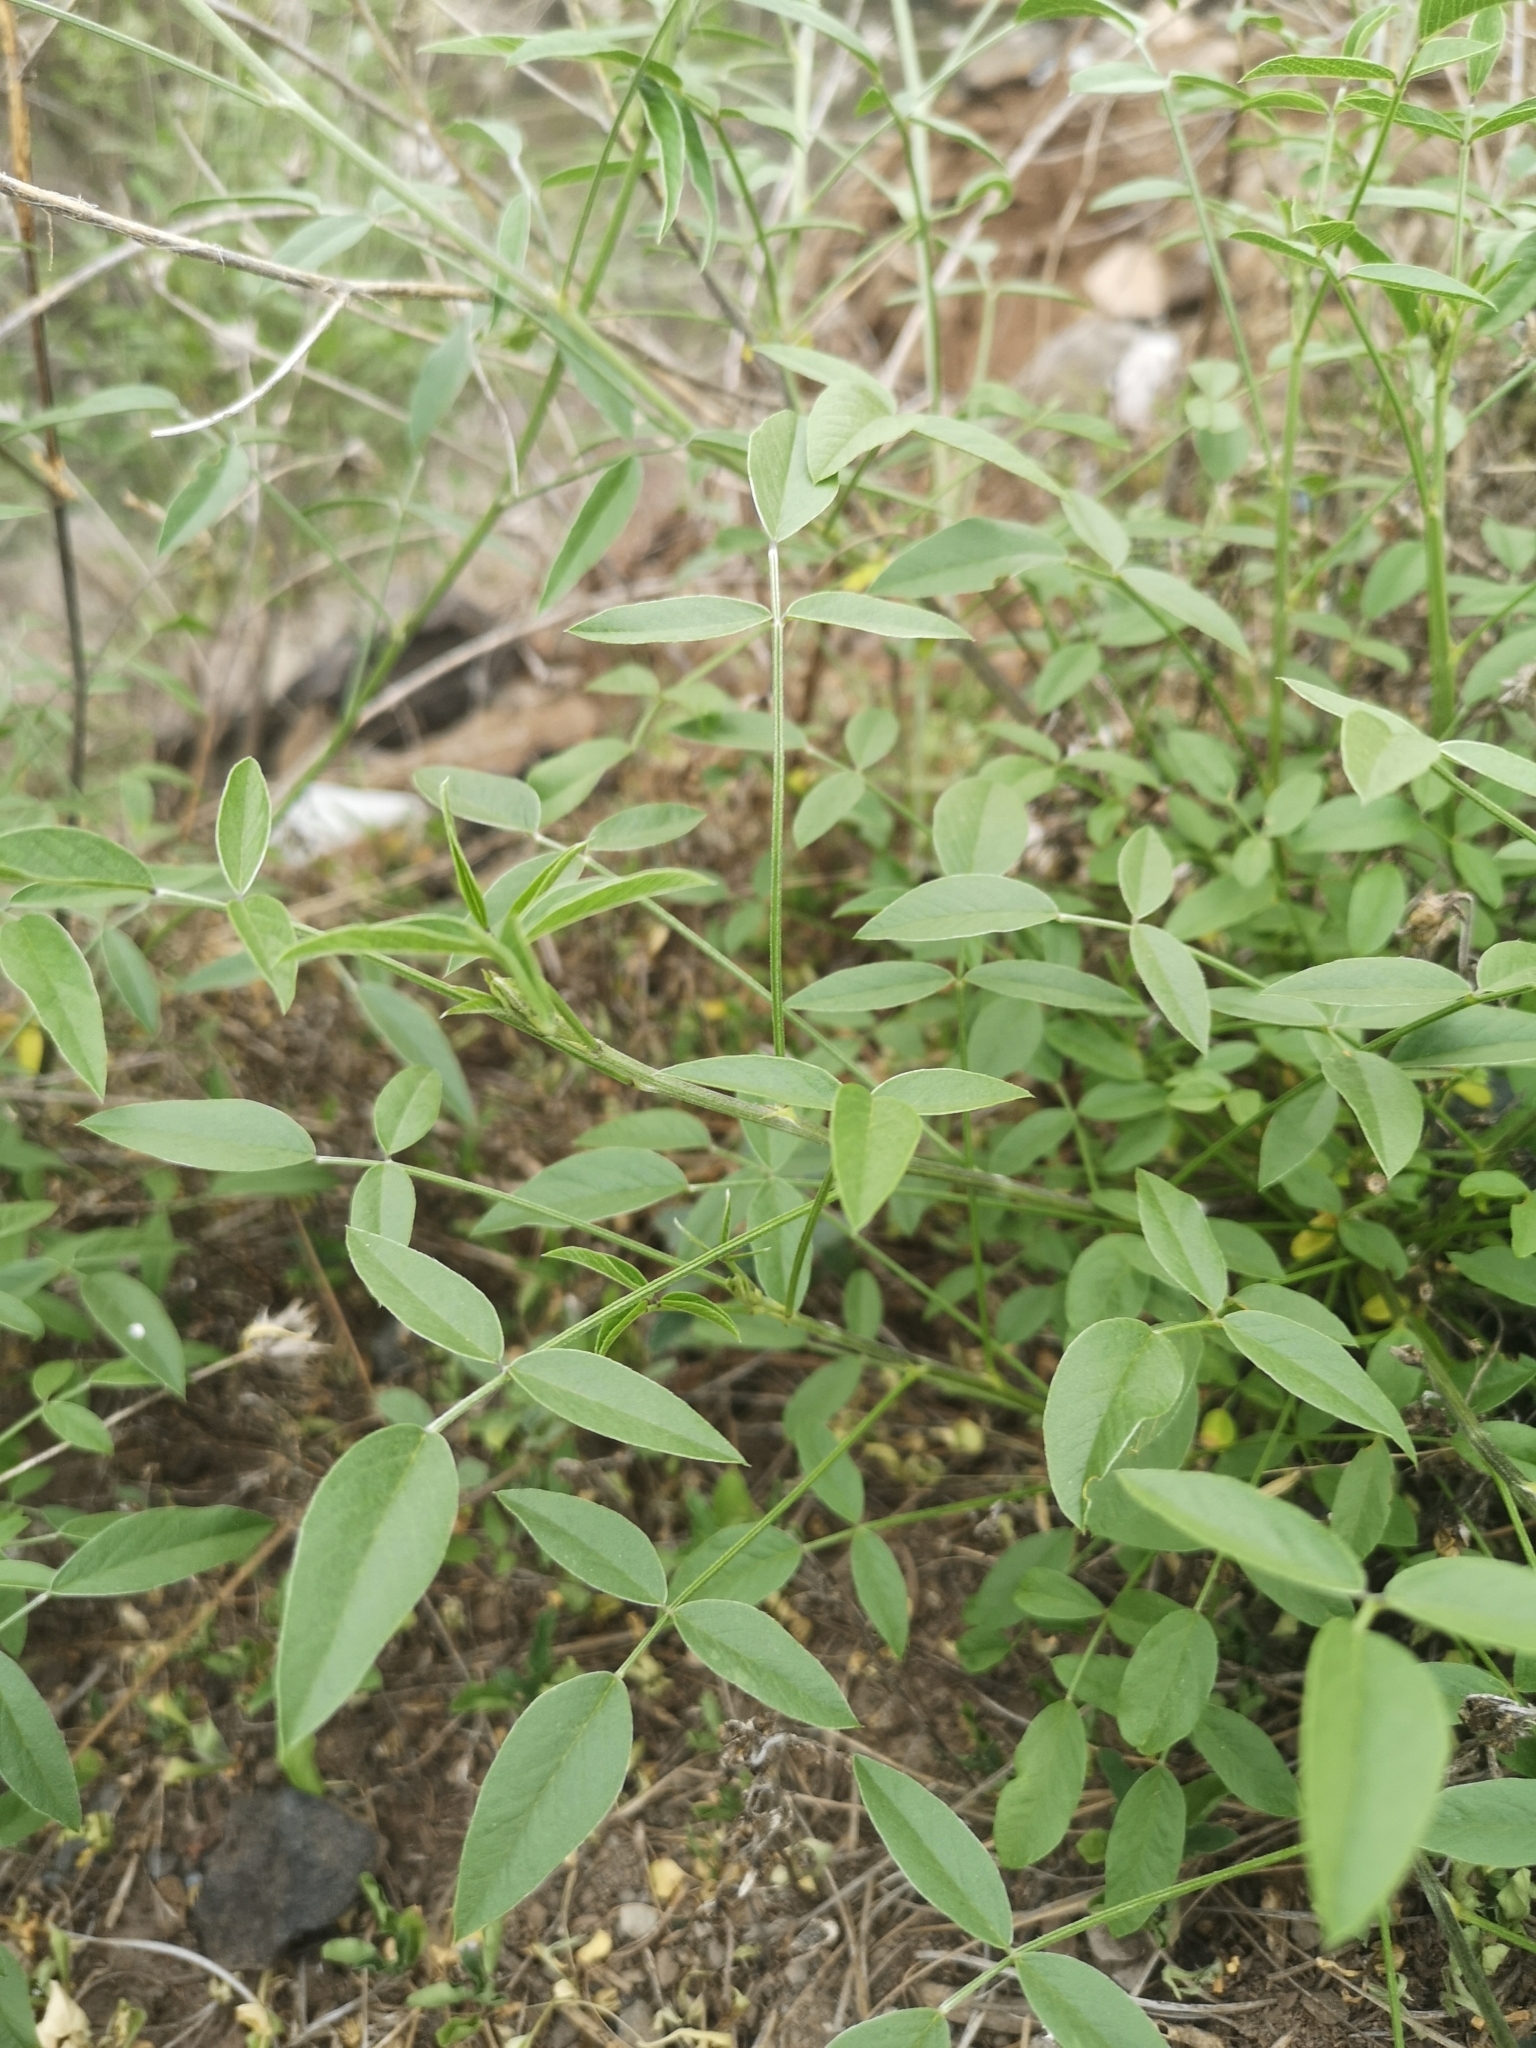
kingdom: Plantae
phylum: Tracheophyta
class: Magnoliopsida
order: Fabales
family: Fabaceae
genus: Bituminaria
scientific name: Bituminaria bituminosa
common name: Arabian pea
